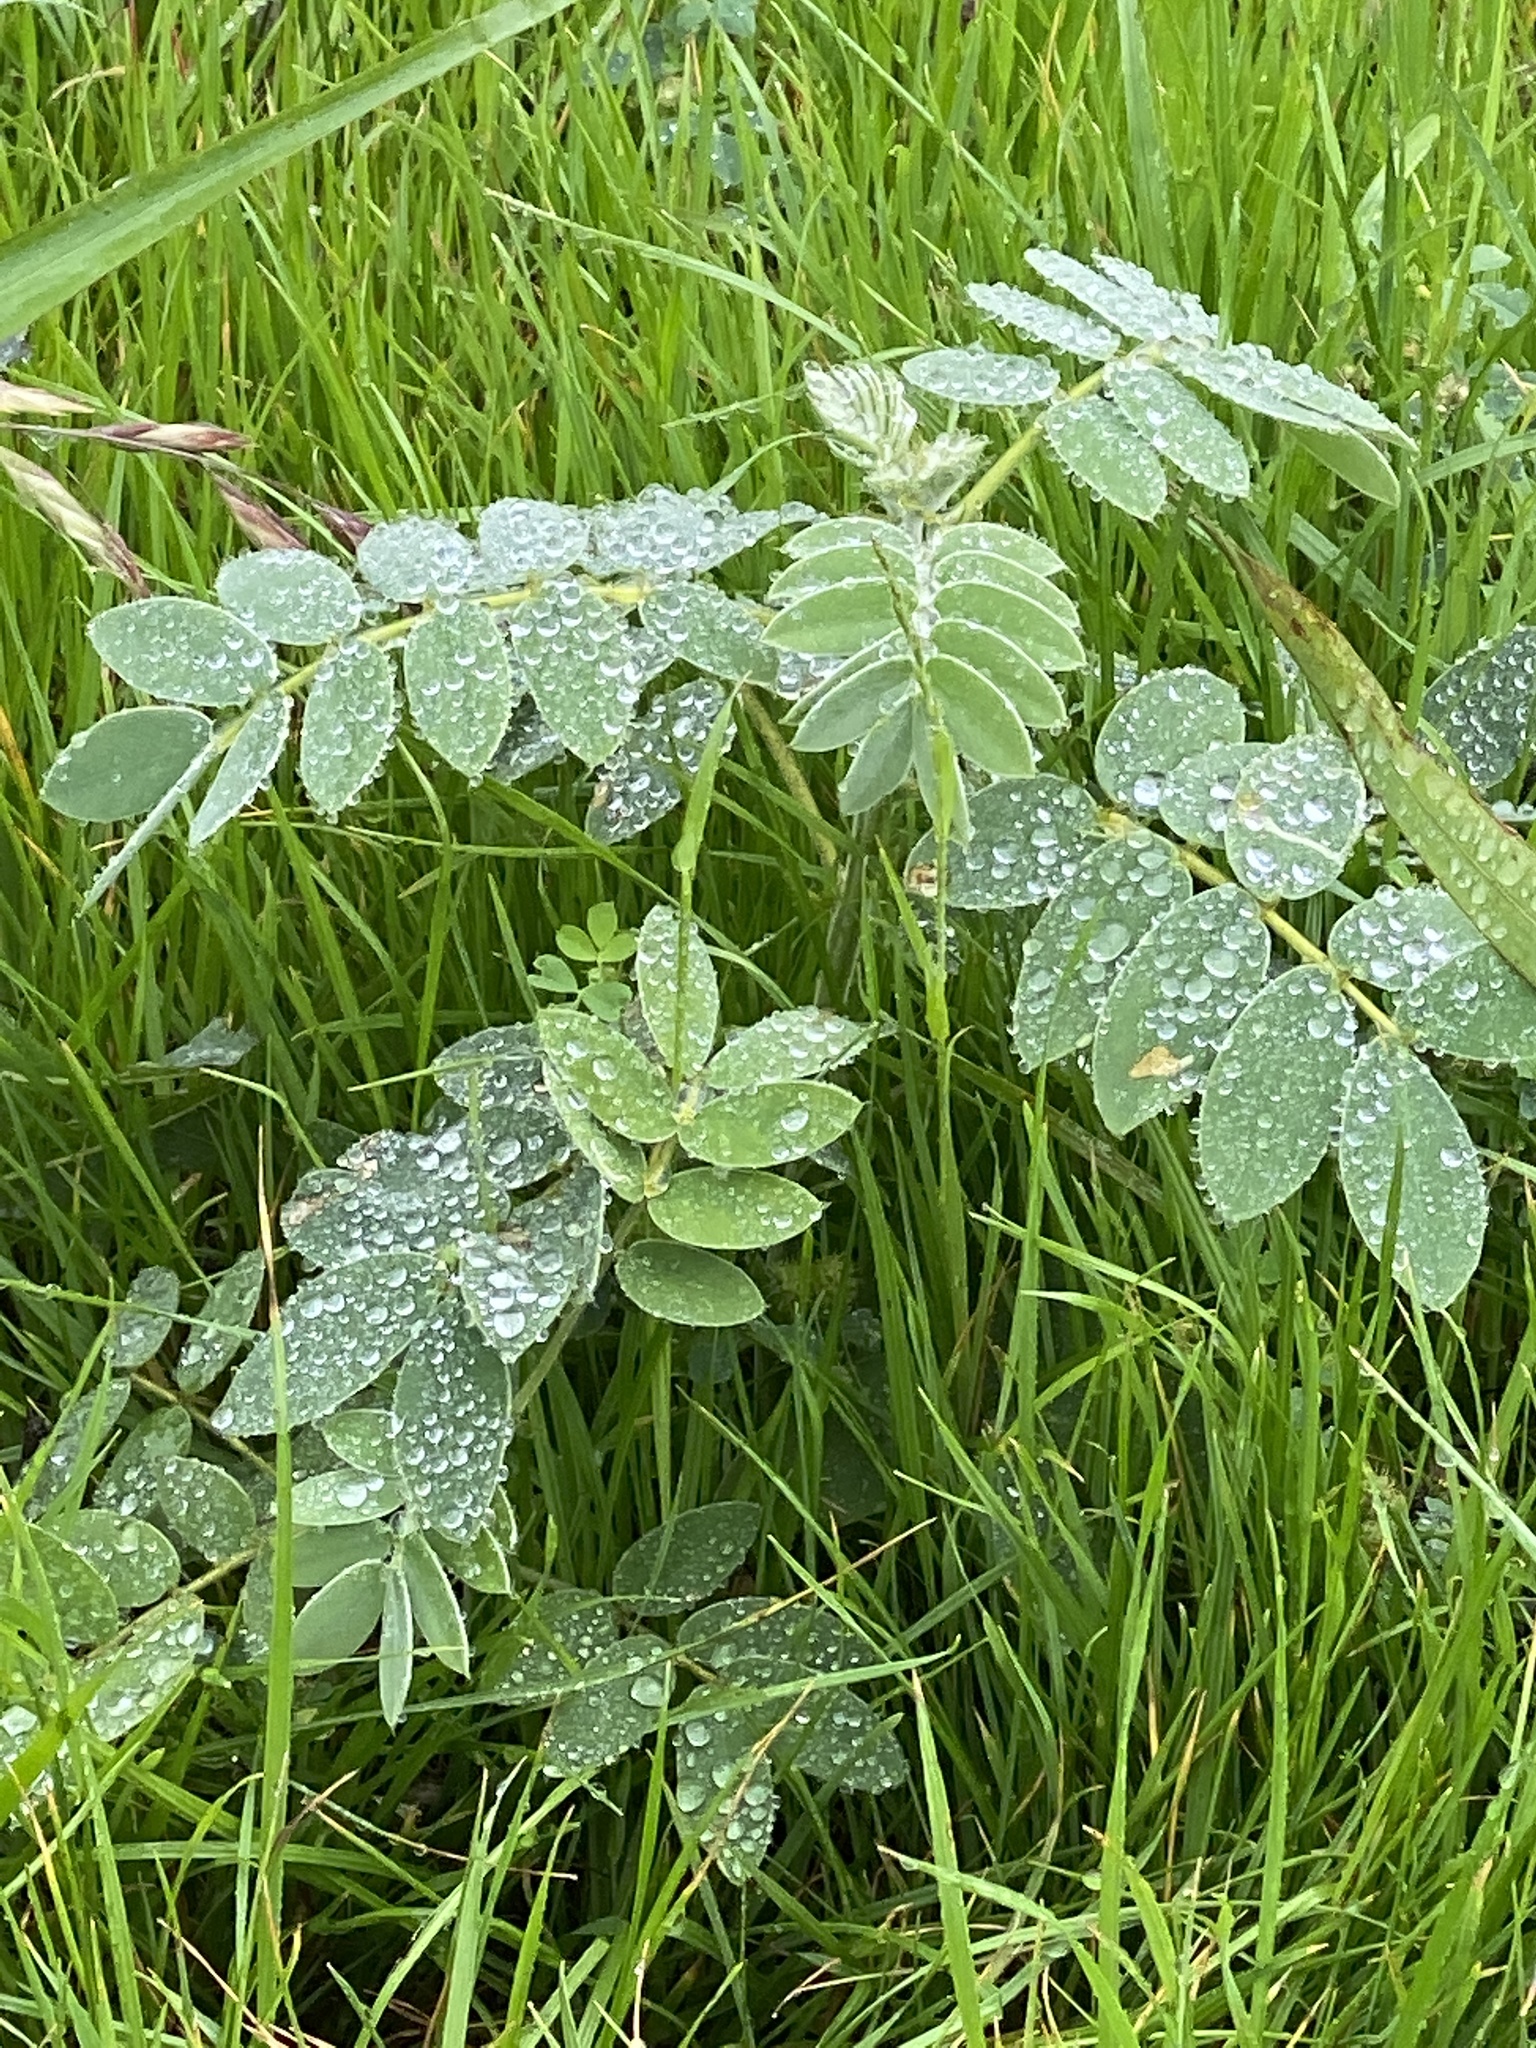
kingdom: Plantae
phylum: Tracheophyta
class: Magnoliopsida
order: Fabales
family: Fabaceae
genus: Senna
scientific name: Senna lindheimeriana
